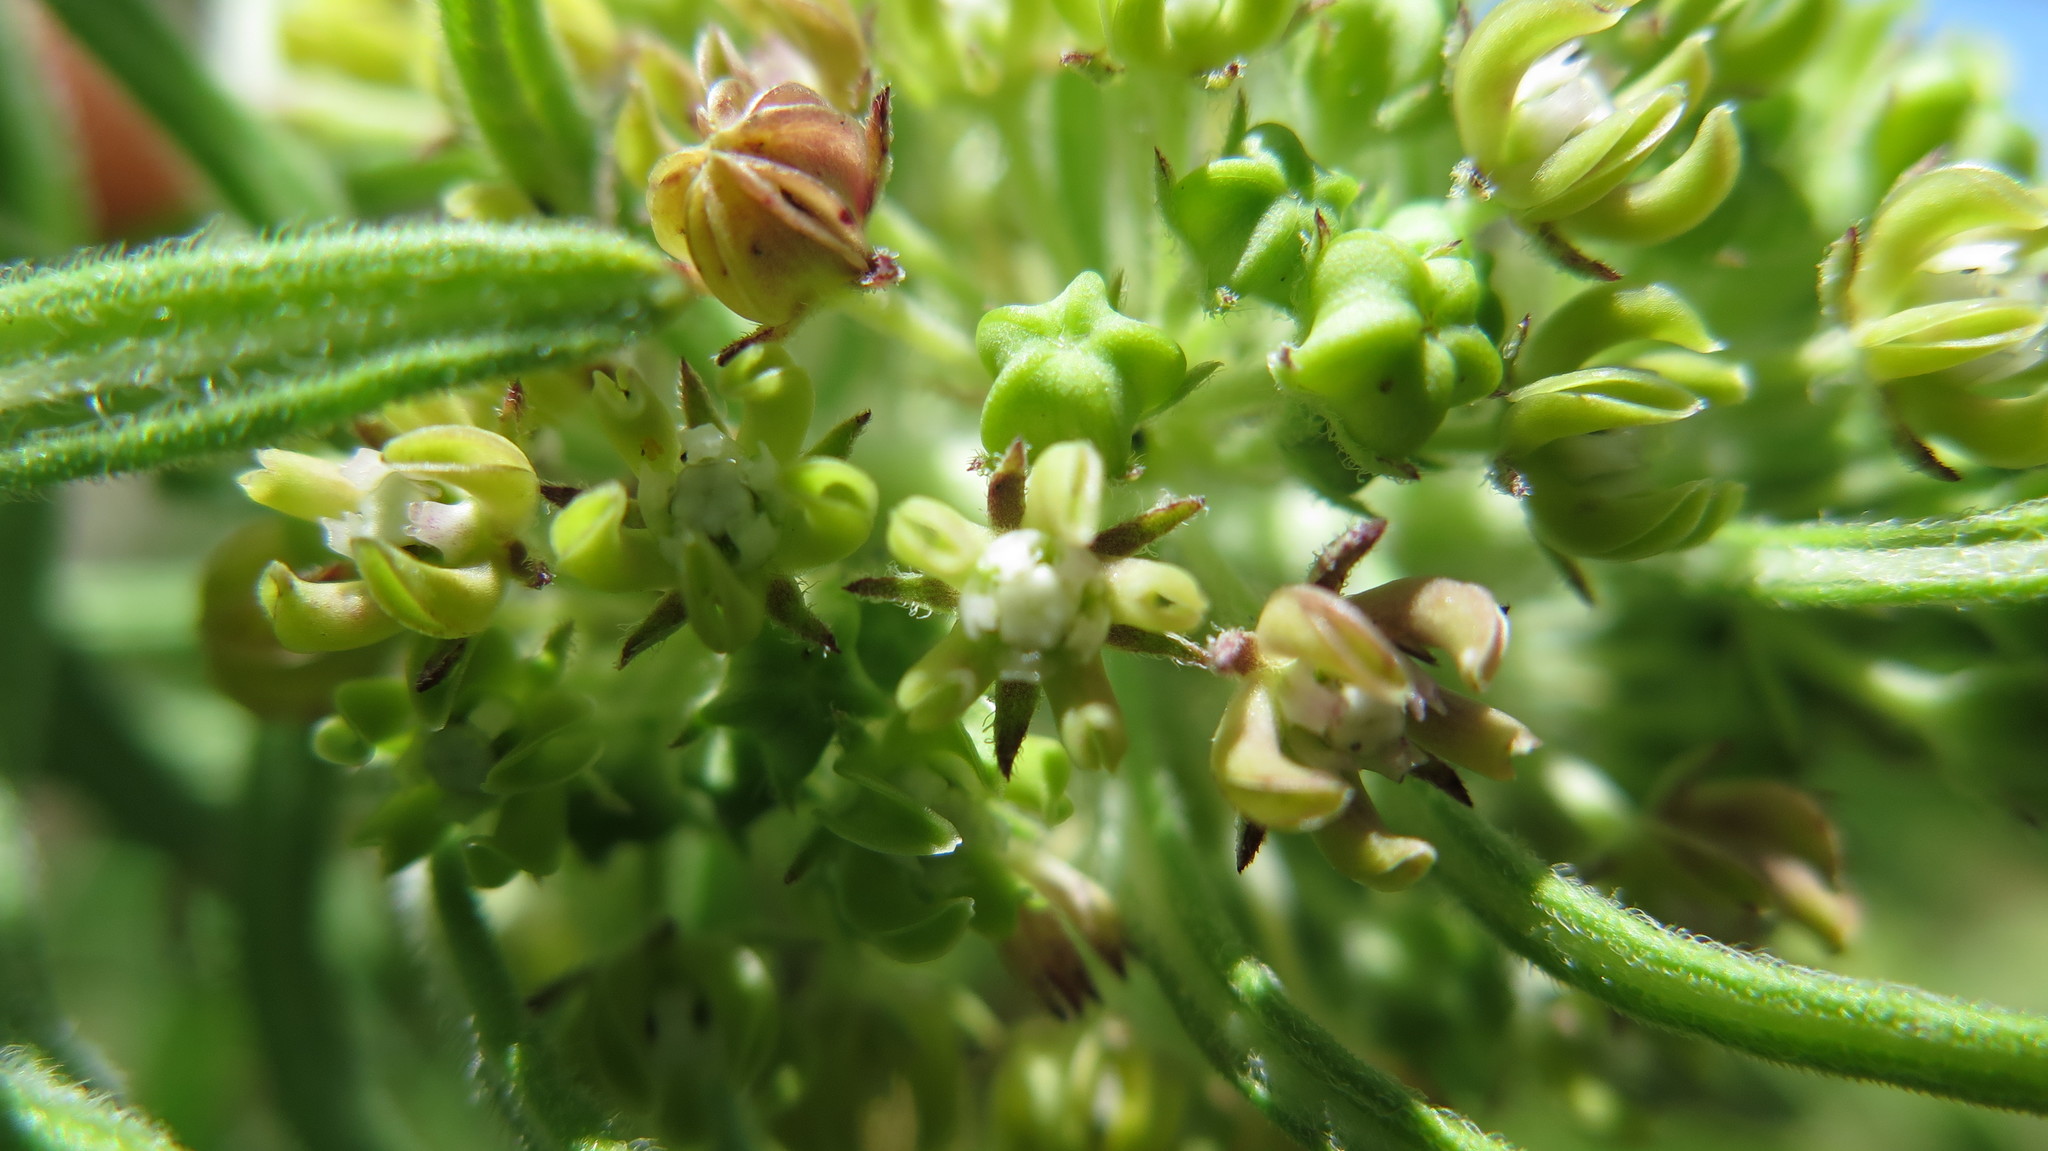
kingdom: Plantae
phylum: Tracheophyta
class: Magnoliopsida
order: Gentianales
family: Apocynaceae
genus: Schizoglossum
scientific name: Schizoglossum bidens
